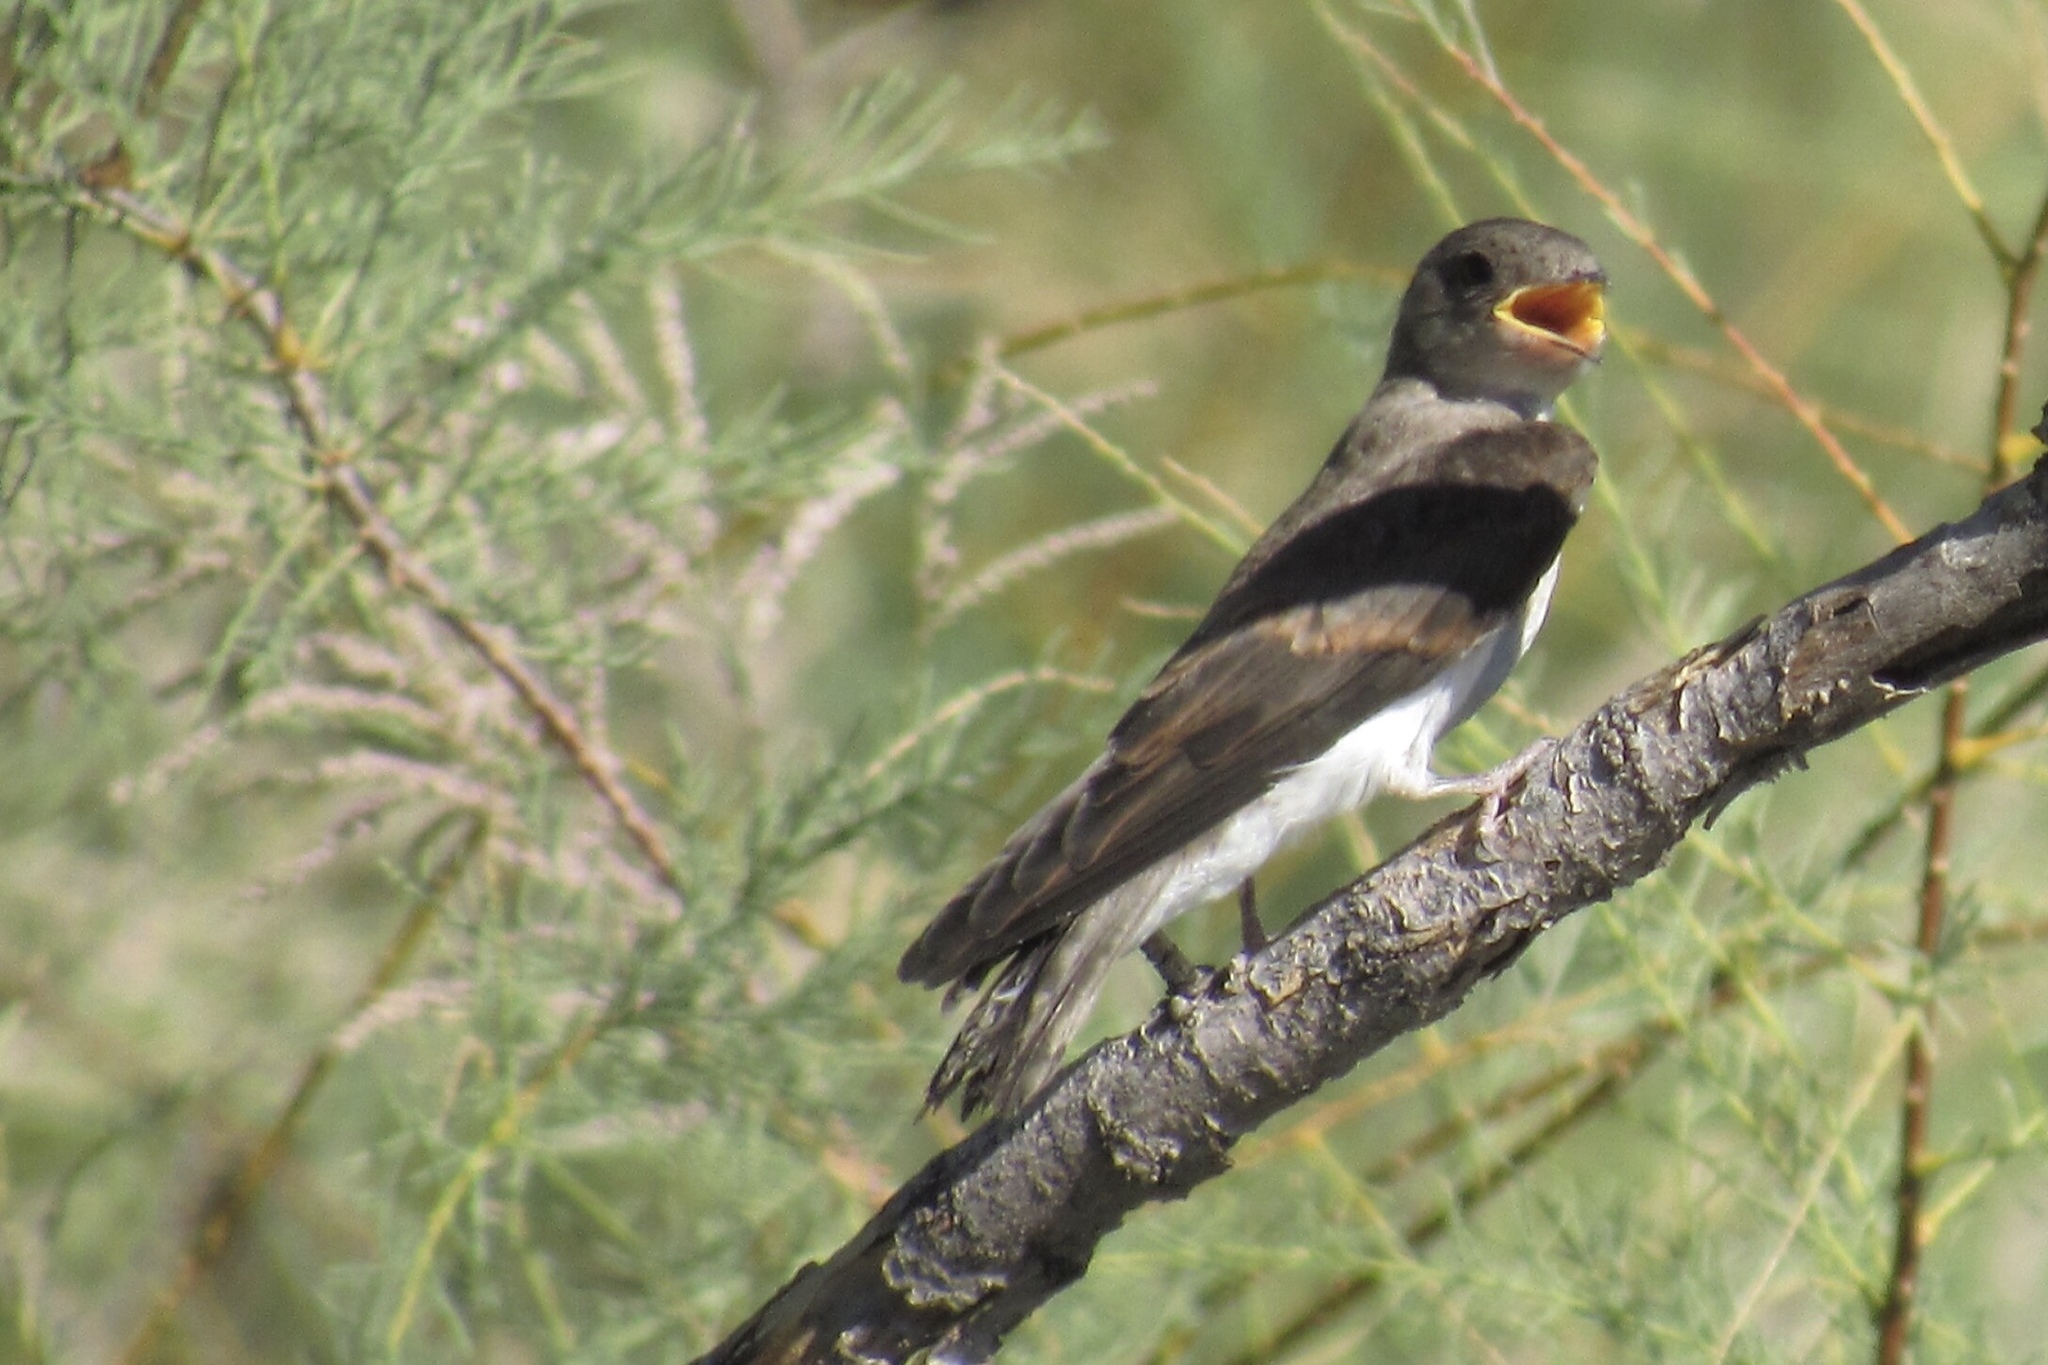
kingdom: Animalia
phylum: Chordata
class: Aves
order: Passeriformes
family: Hirundinidae
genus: Stelgidopteryx
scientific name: Stelgidopteryx serripennis
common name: Northern rough-winged swallow
